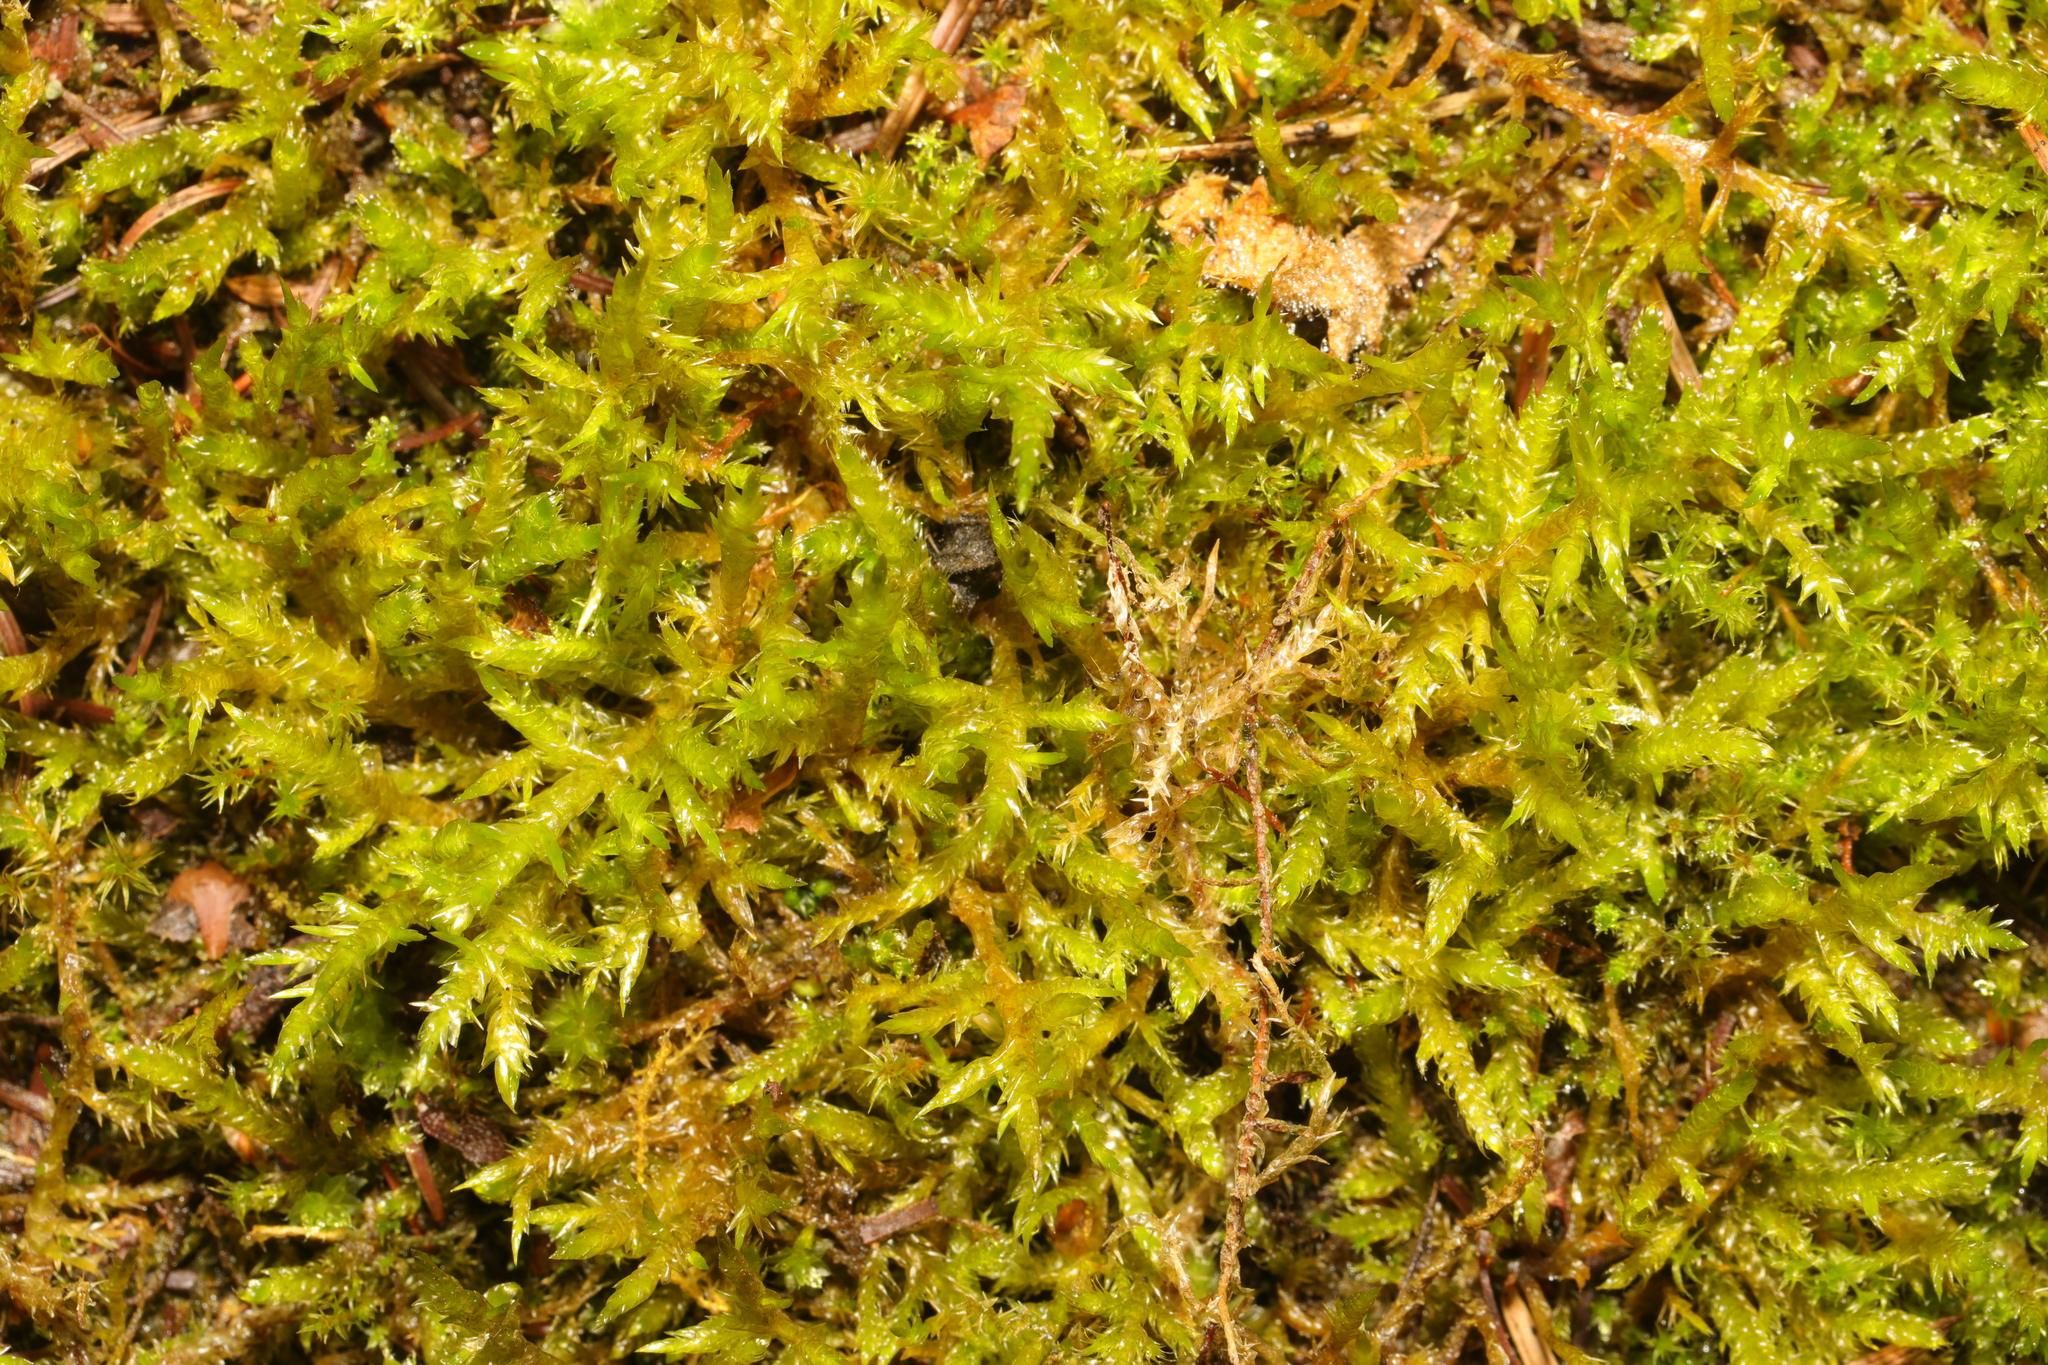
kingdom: Plantae
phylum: Bryophyta
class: Bryopsida
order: Hypnales
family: Pylaisiaceae
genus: Calliergonella
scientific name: Calliergonella cuspidata
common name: Common large wetland moss
